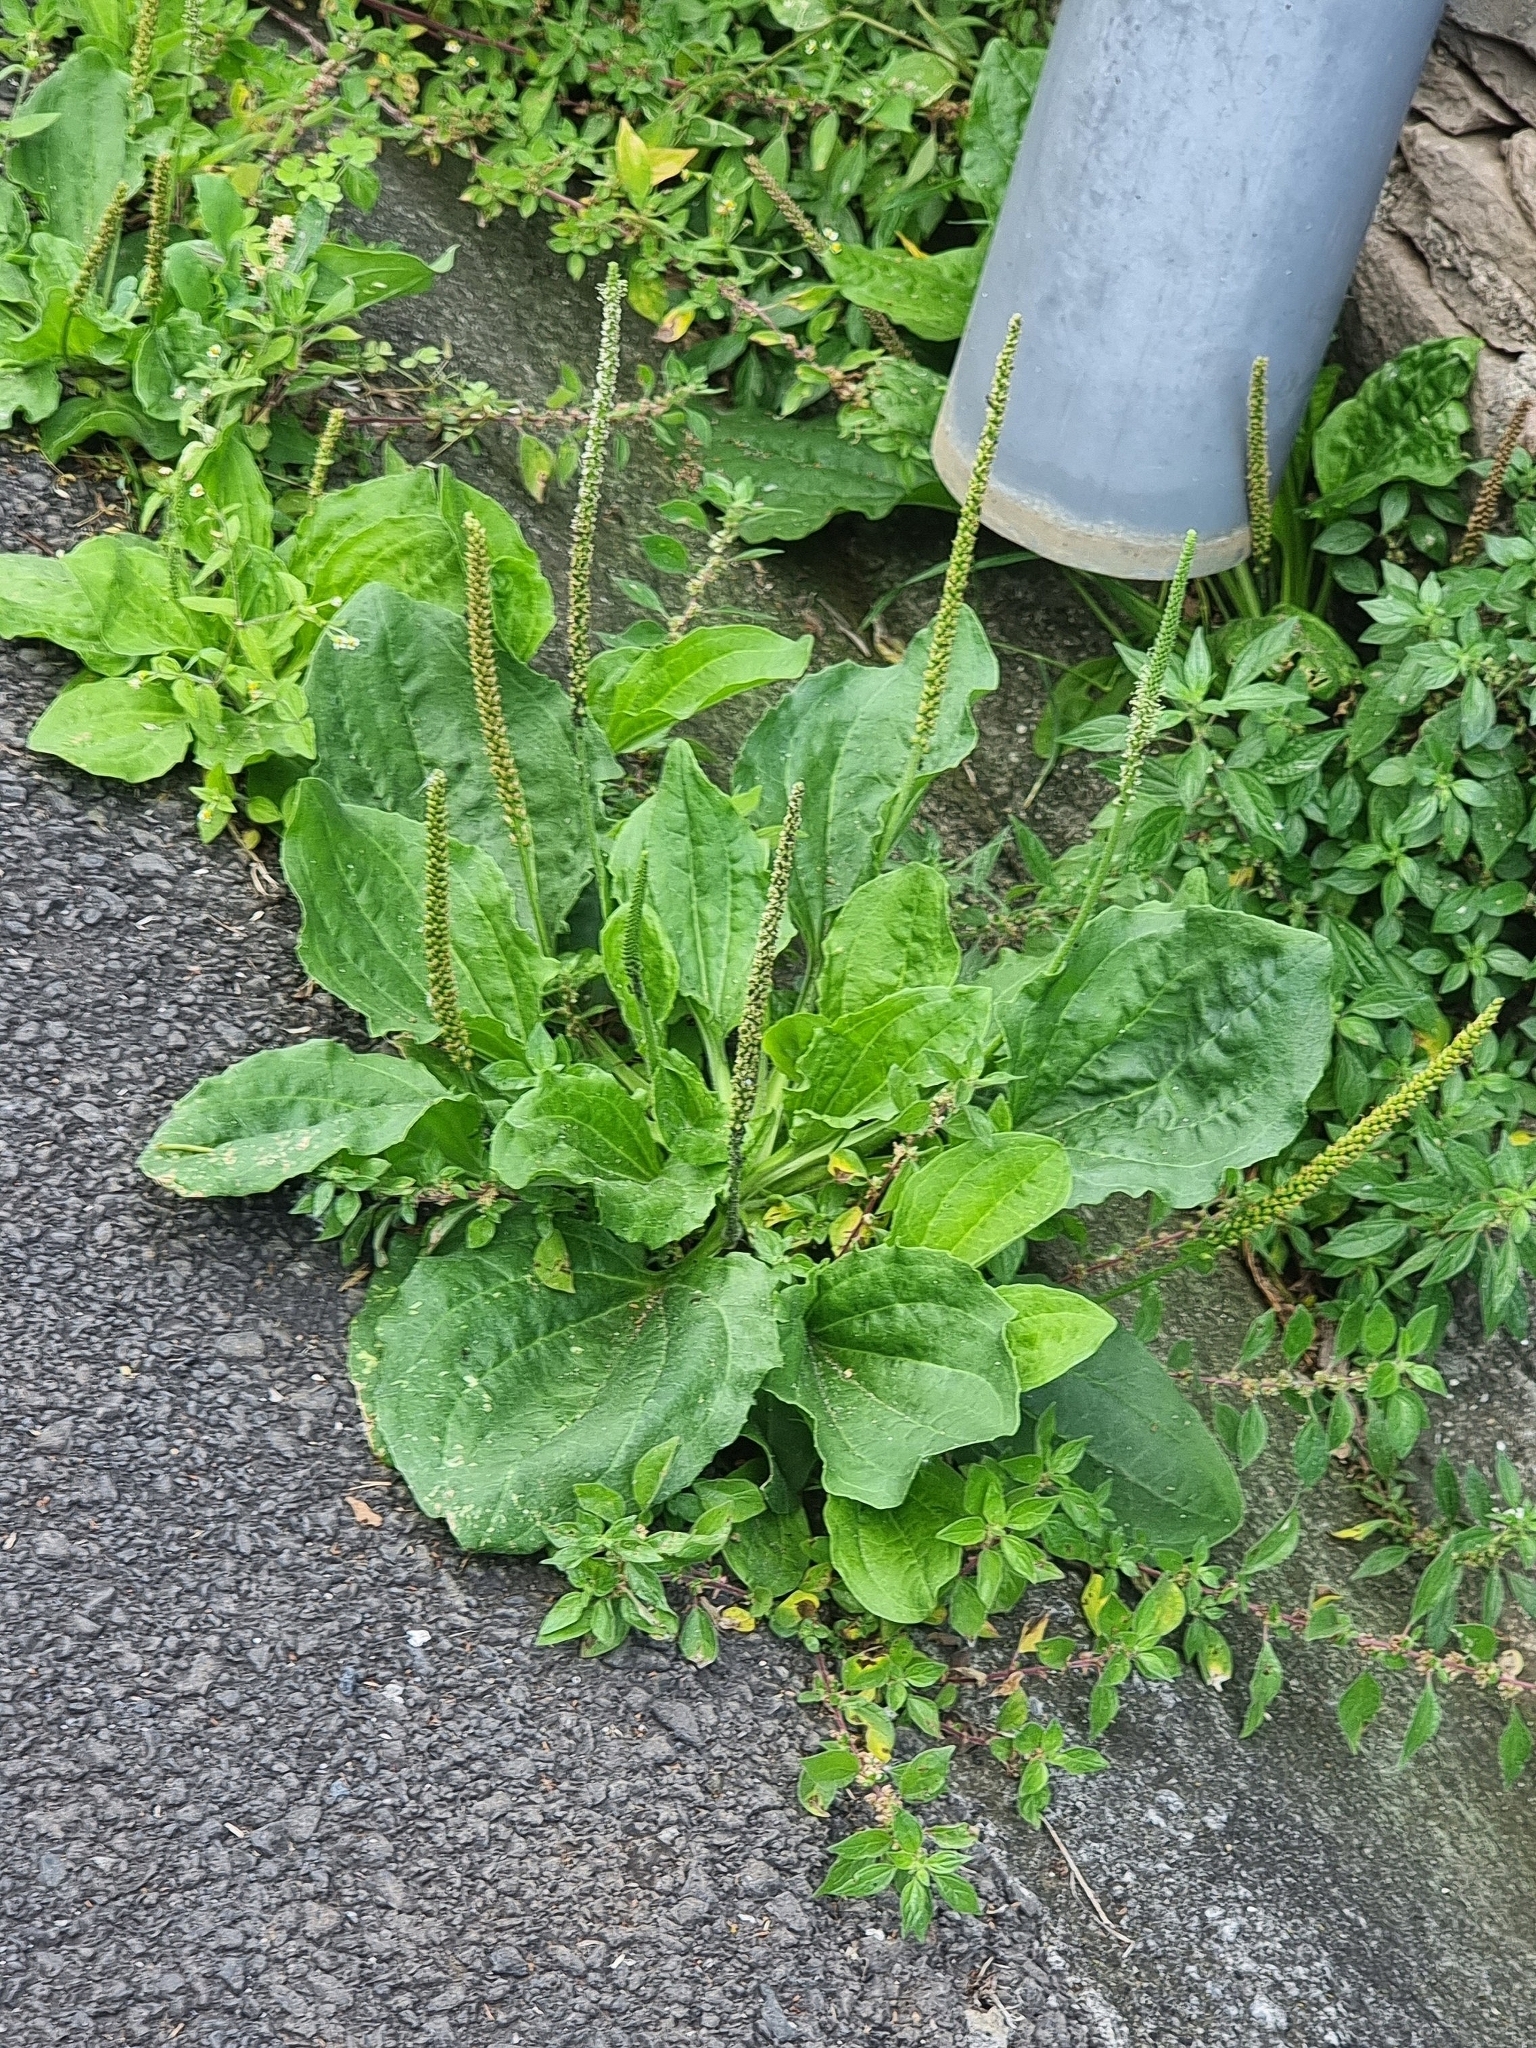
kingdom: Plantae
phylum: Tracheophyta
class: Magnoliopsida
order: Lamiales
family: Plantaginaceae
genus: Plantago
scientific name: Plantago major
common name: Common plantain
